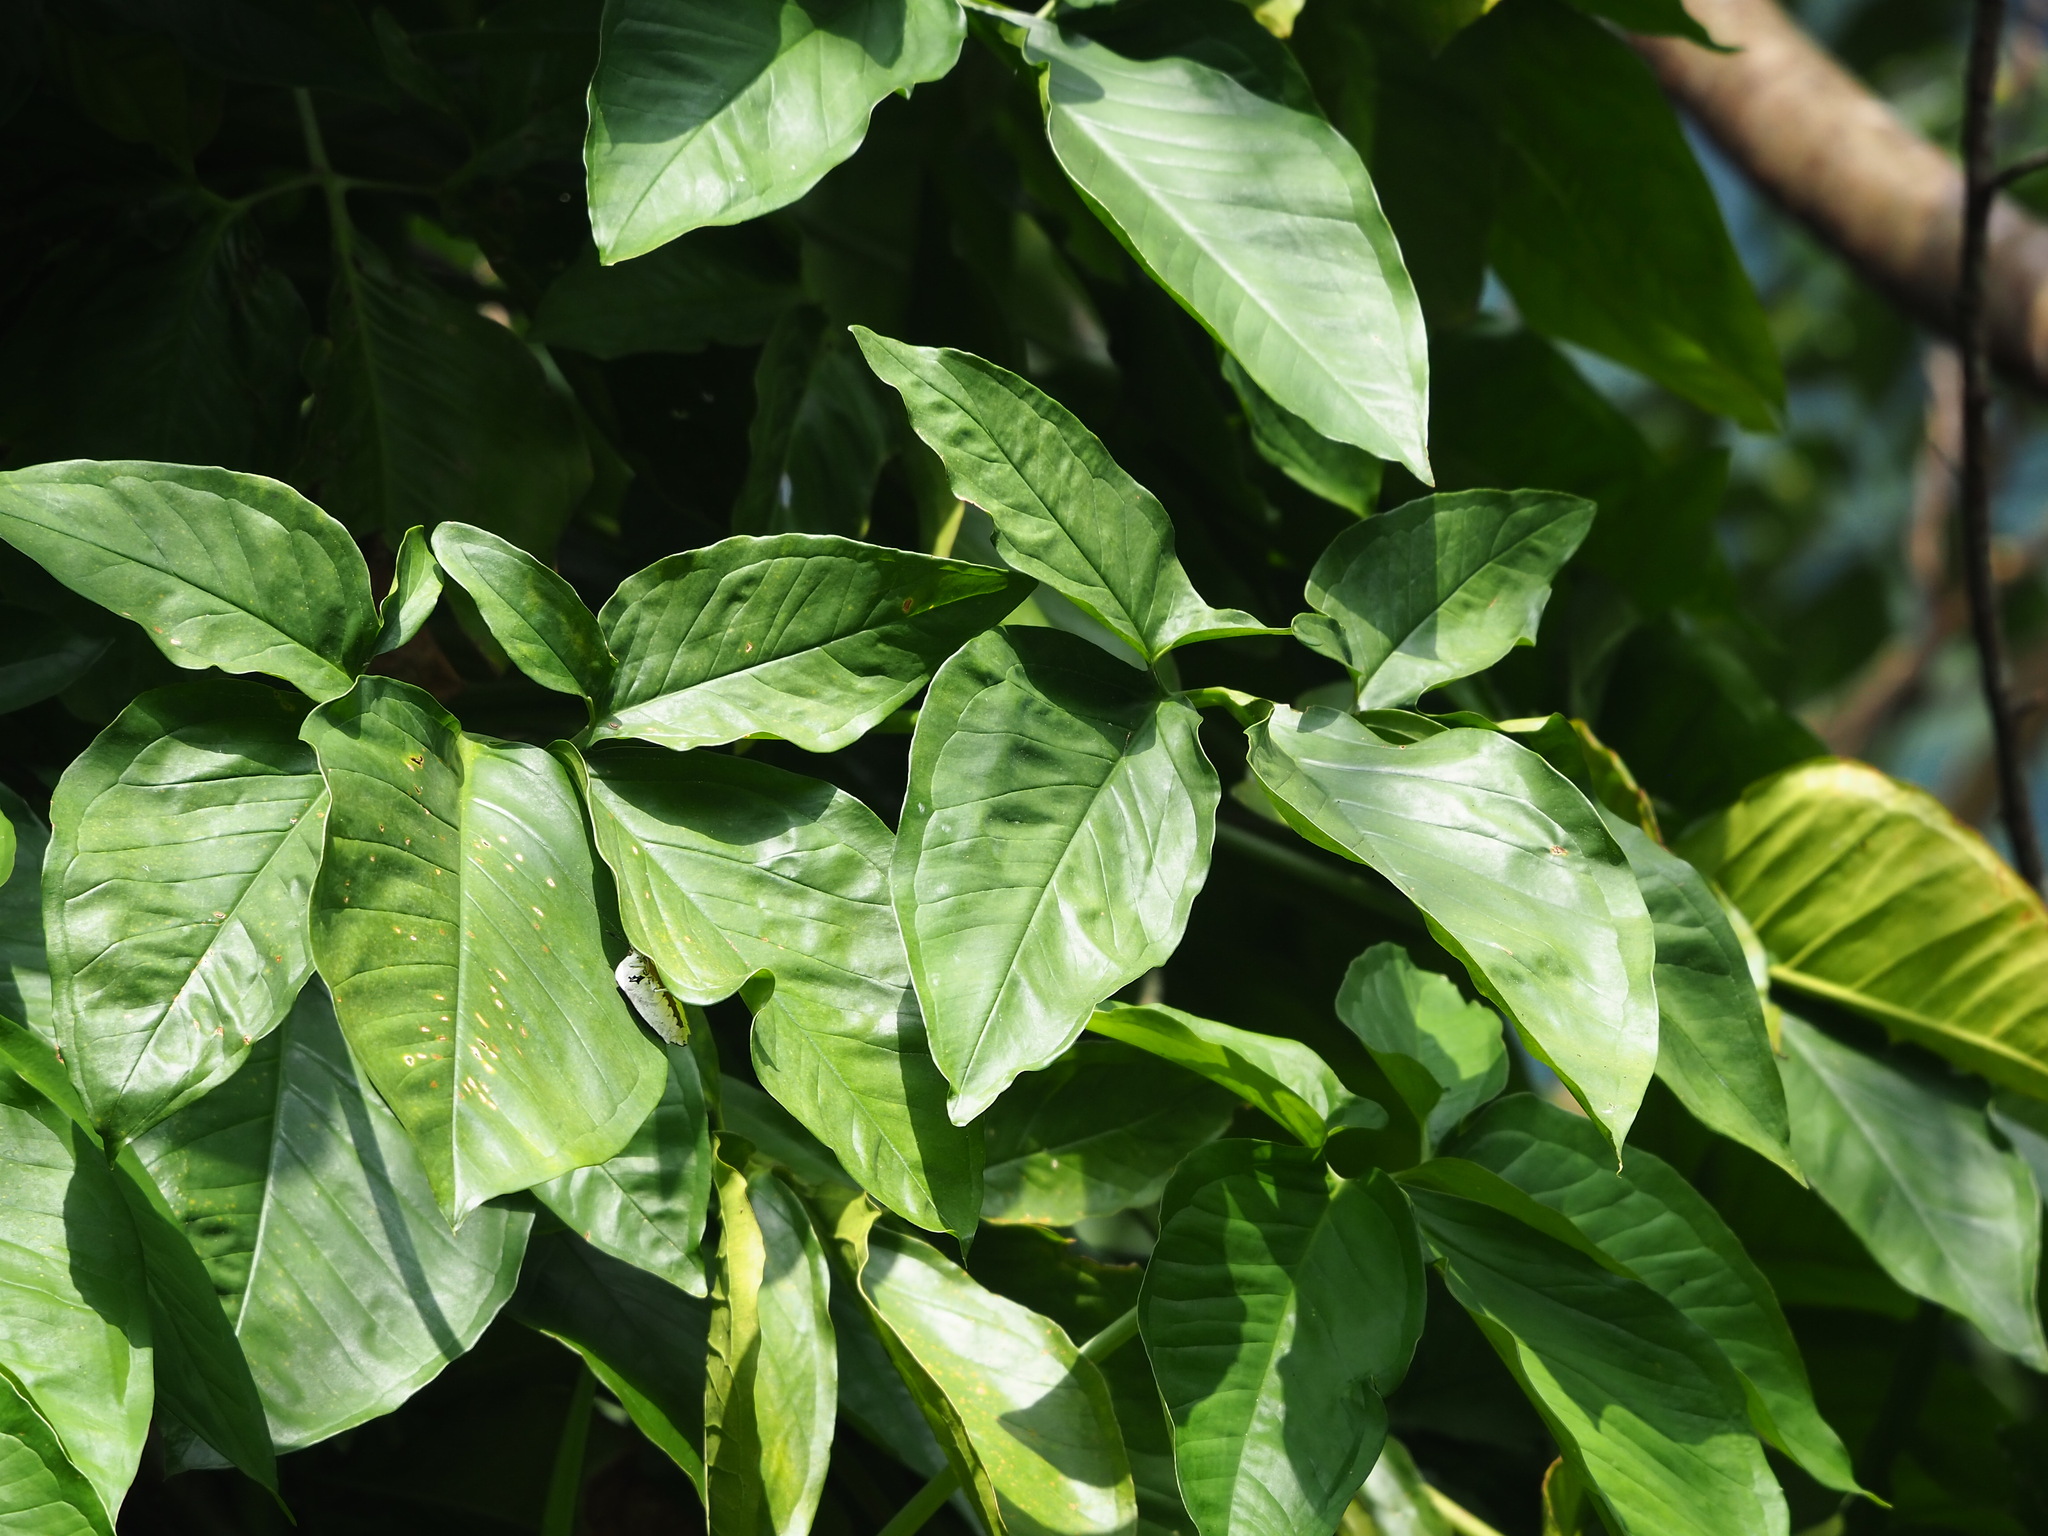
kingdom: Plantae
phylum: Tracheophyta
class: Liliopsida
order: Alismatales
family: Araceae
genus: Syngonium
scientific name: Syngonium angustatum
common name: Fivefingers
